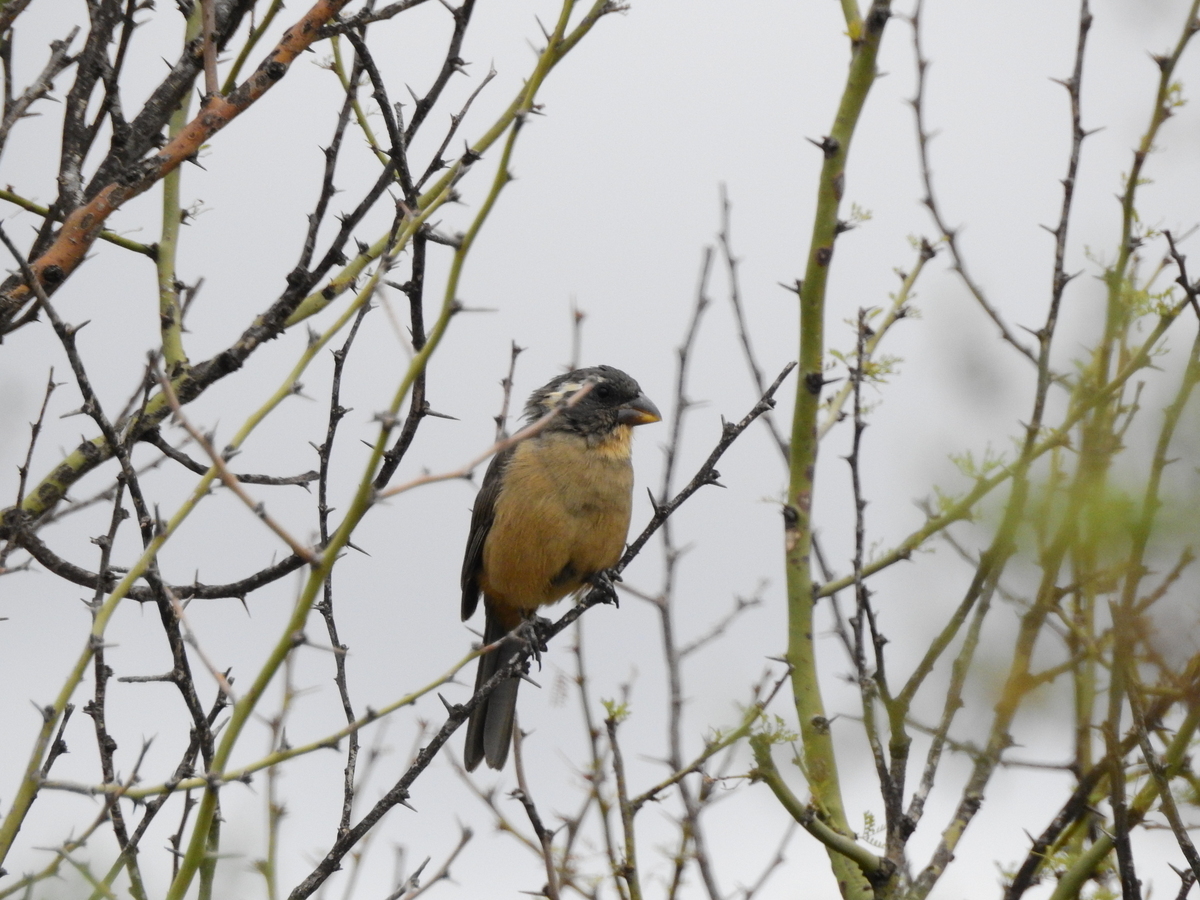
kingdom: Animalia
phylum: Chordata
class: Aves
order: Passeriformes
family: Thraupidae
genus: Saltator
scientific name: Saltator aurantiirostris
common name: Golden-billed saltator
